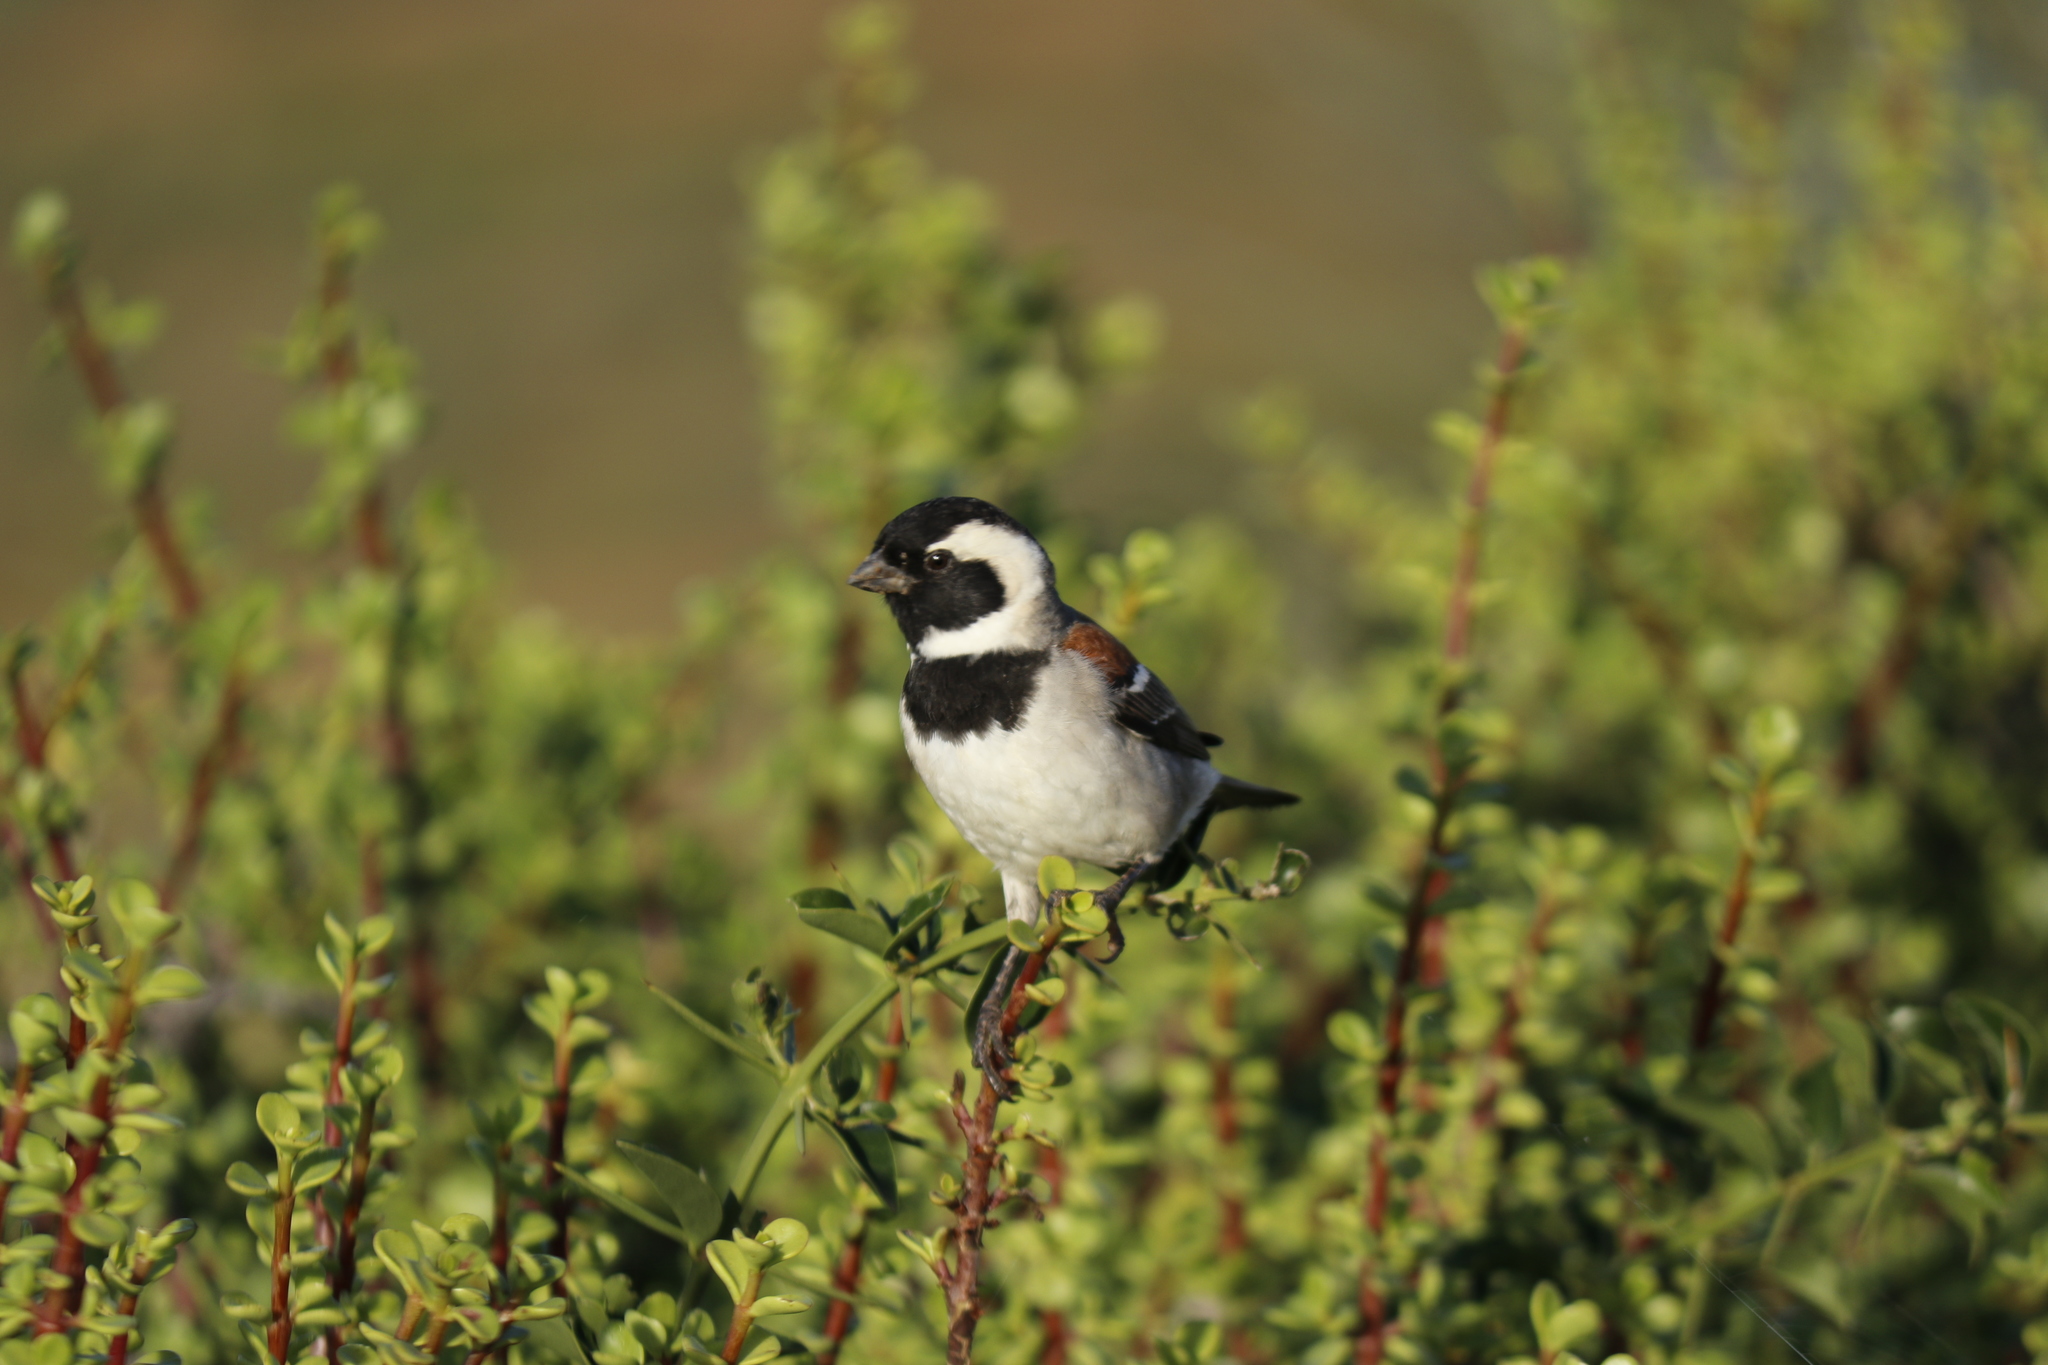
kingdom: Animalia
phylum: Chordata
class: Aves
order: Passeriformes
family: Passeridae
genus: Passer
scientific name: Passer melanurus
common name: Cape sparrow
